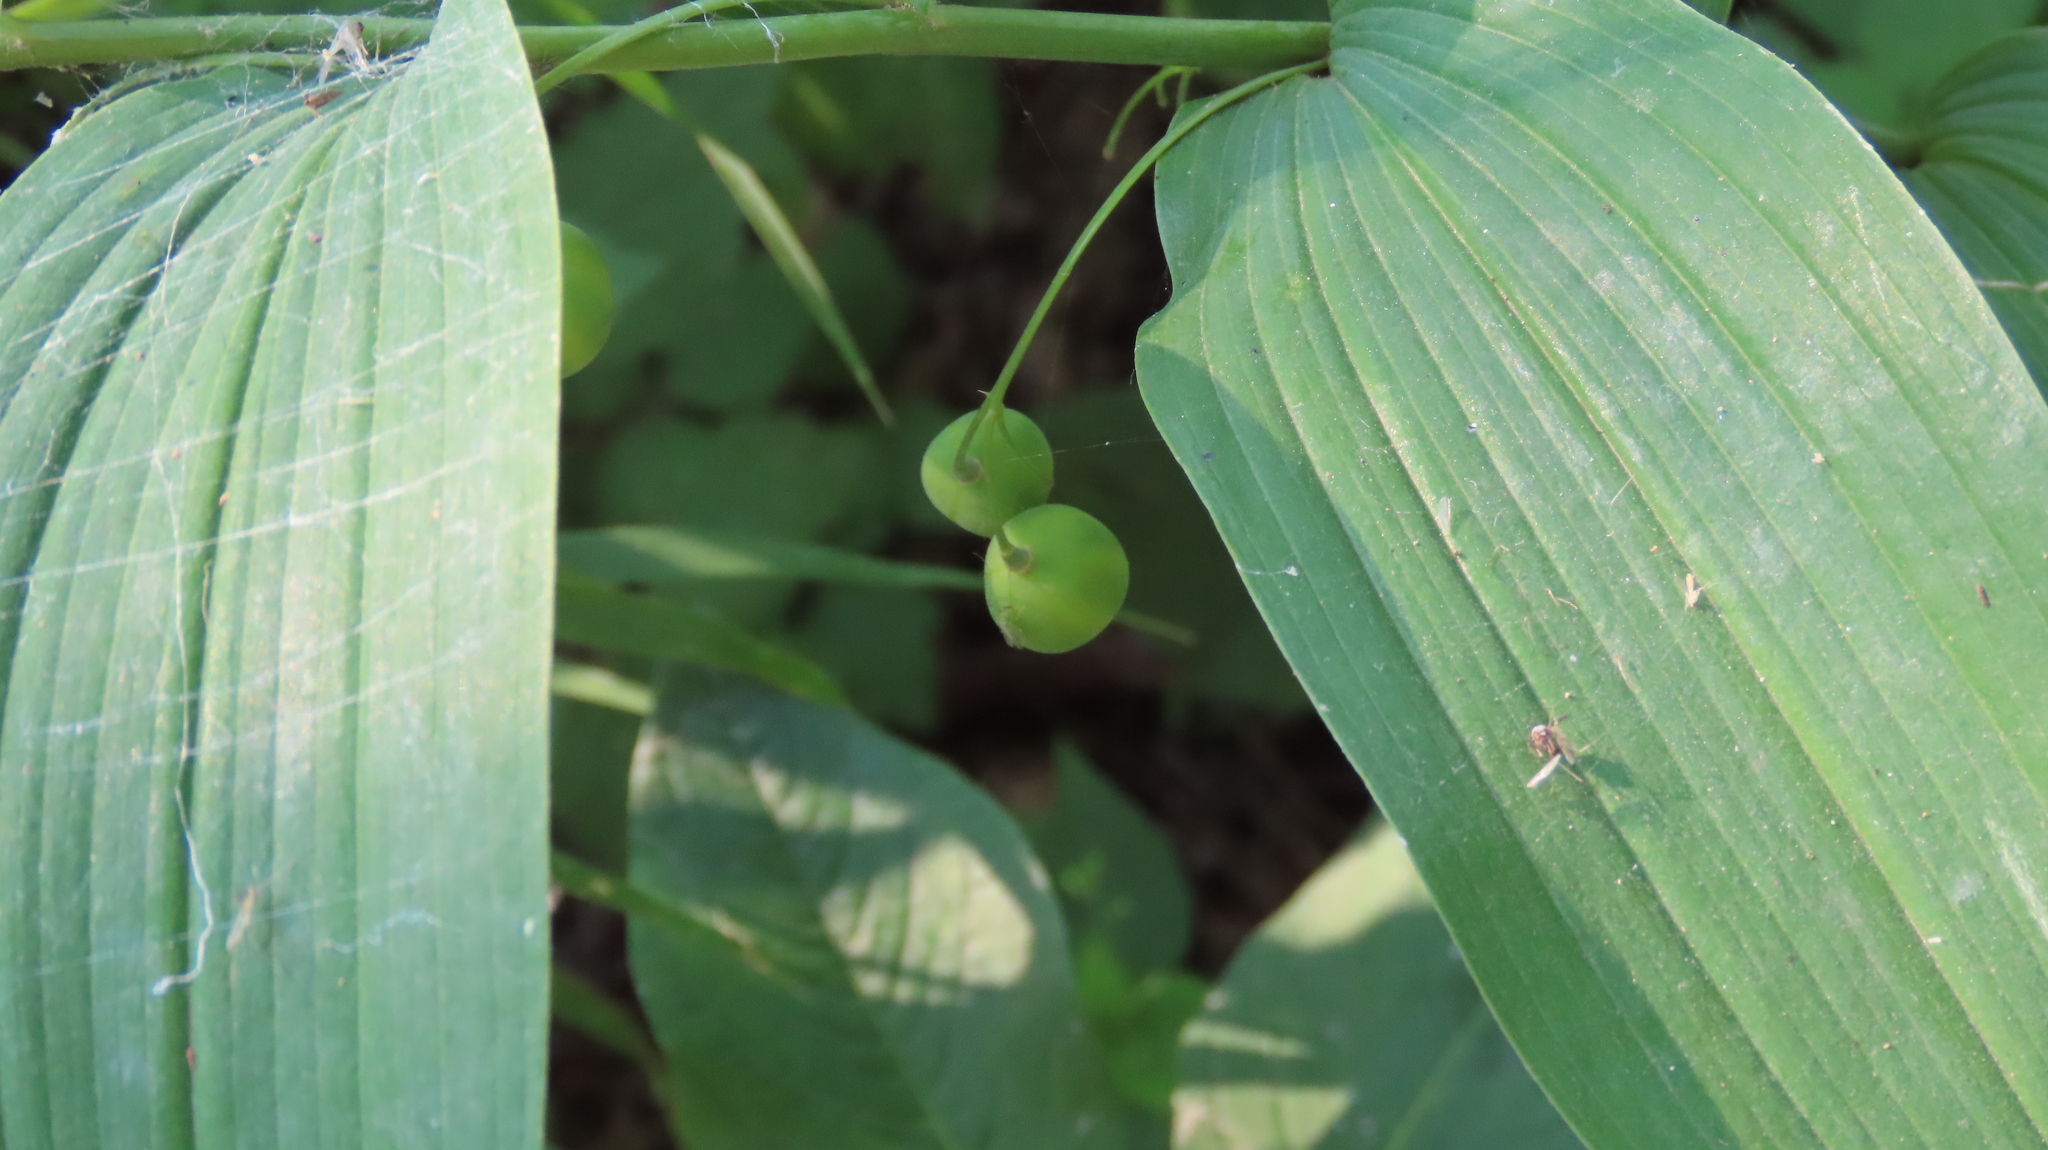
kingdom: Plantae
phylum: Tracheophyta
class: Liliopsida
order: Asparagales
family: Asparagaceae
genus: Polygonatum
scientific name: Polygonatum biflorum
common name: American solomon's-seal
